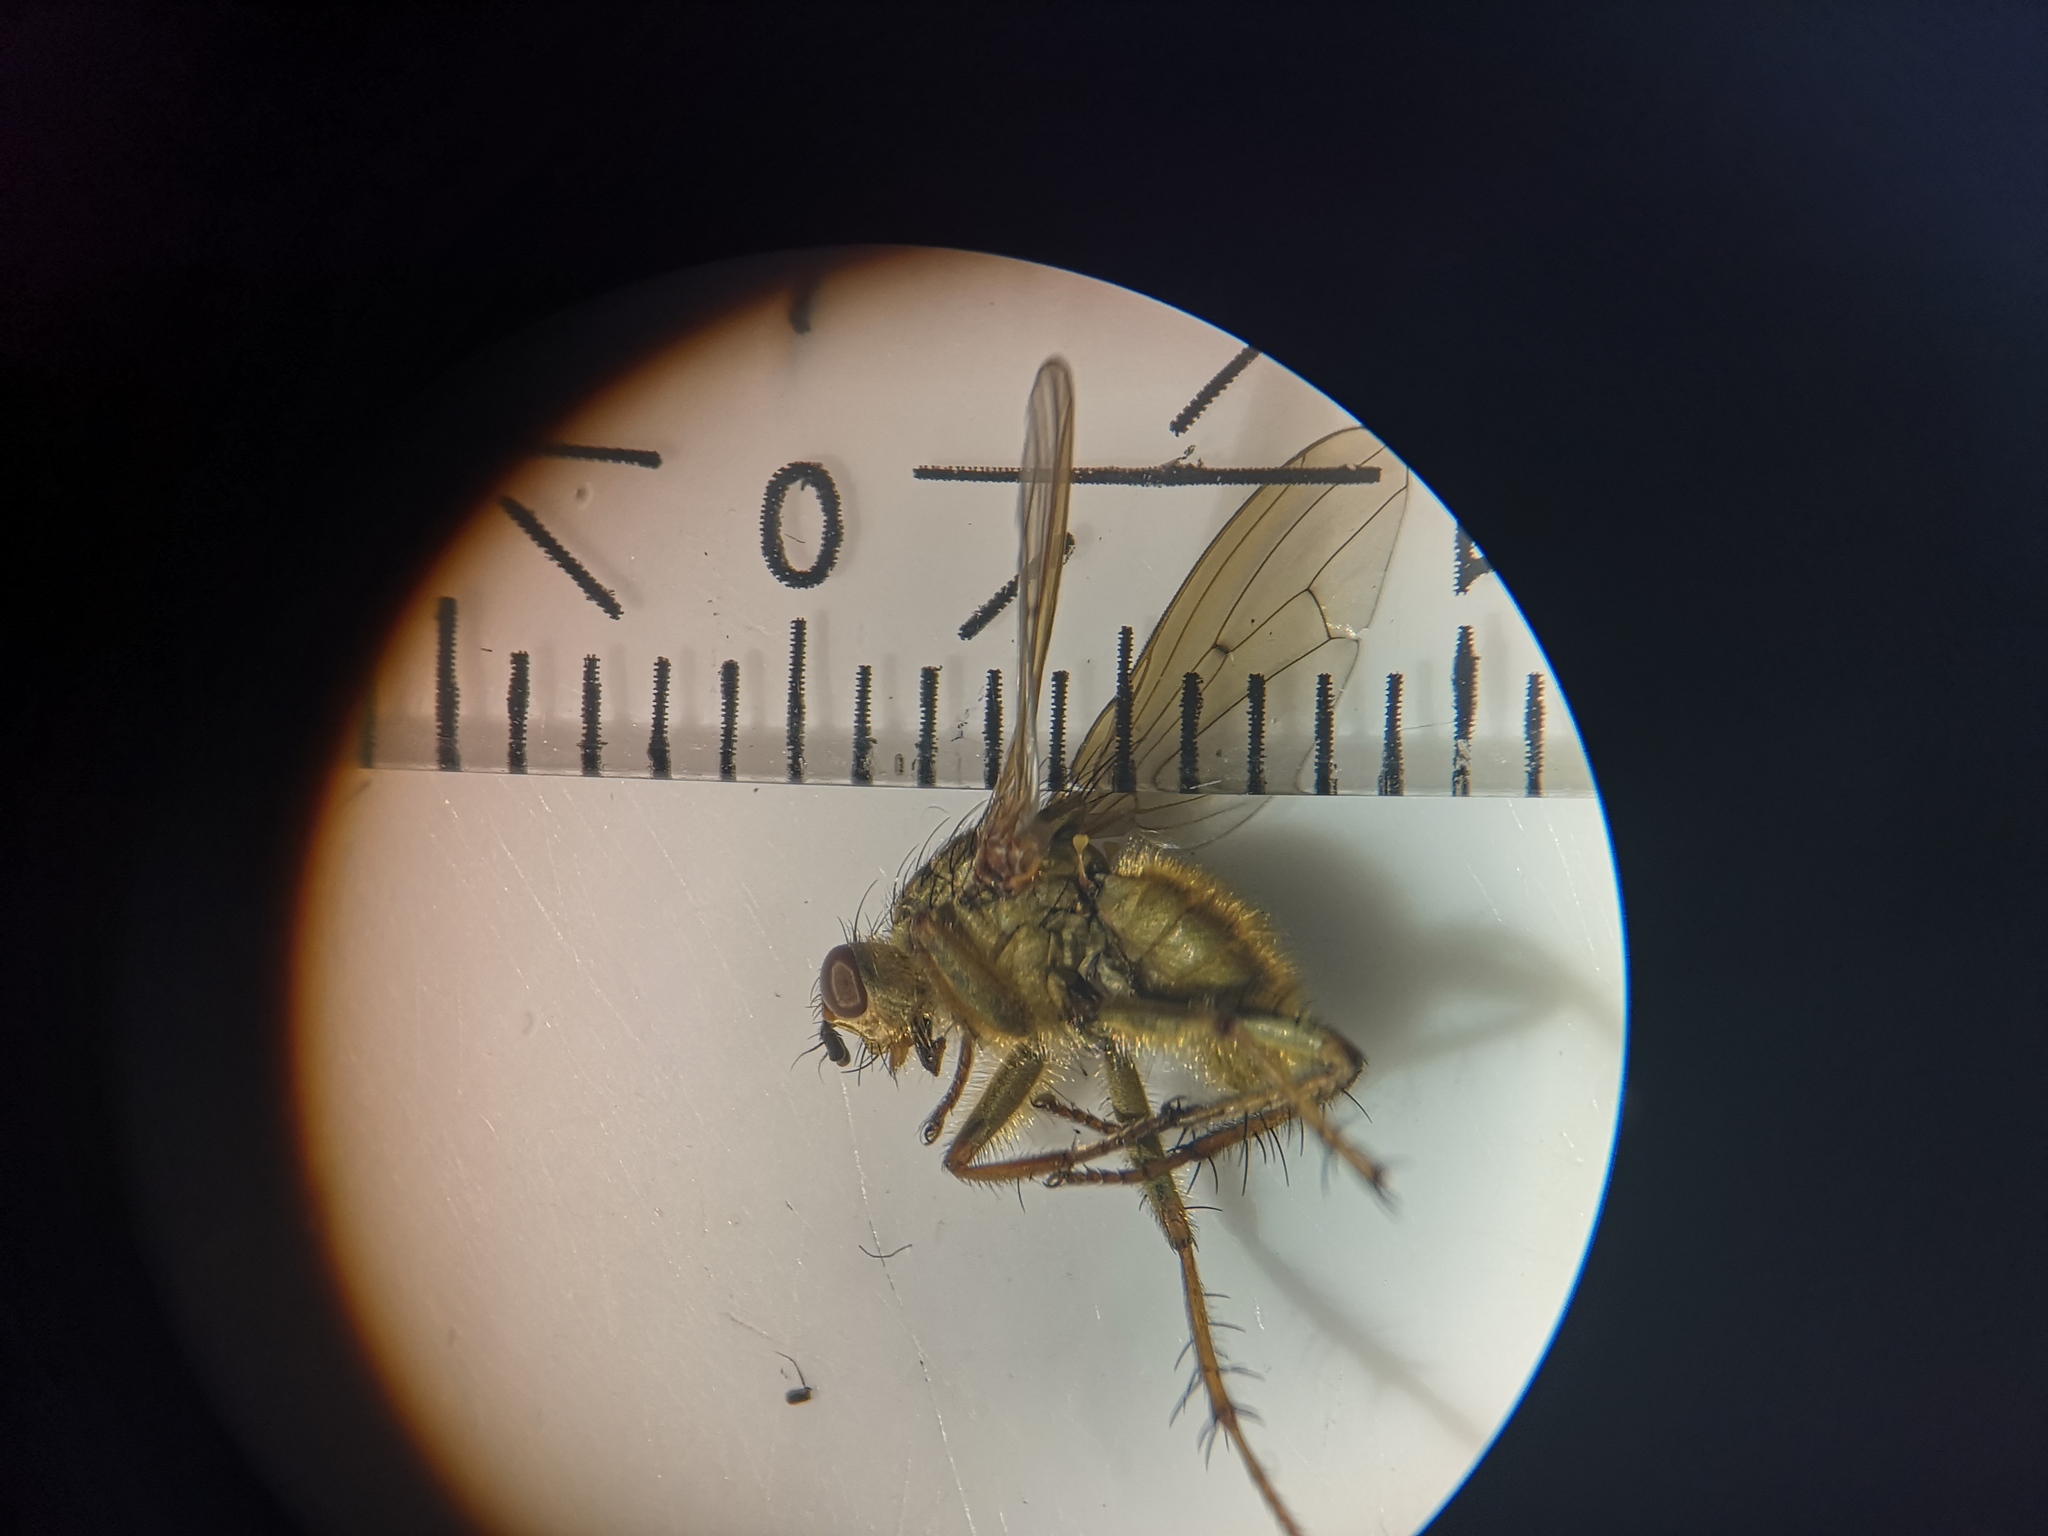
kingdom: Animalia
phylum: Arthropoda
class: Insecta
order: Diptera
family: Scathophagidae
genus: Scathophaga
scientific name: Scathophaga stercoraria
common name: Yellow dung fly
